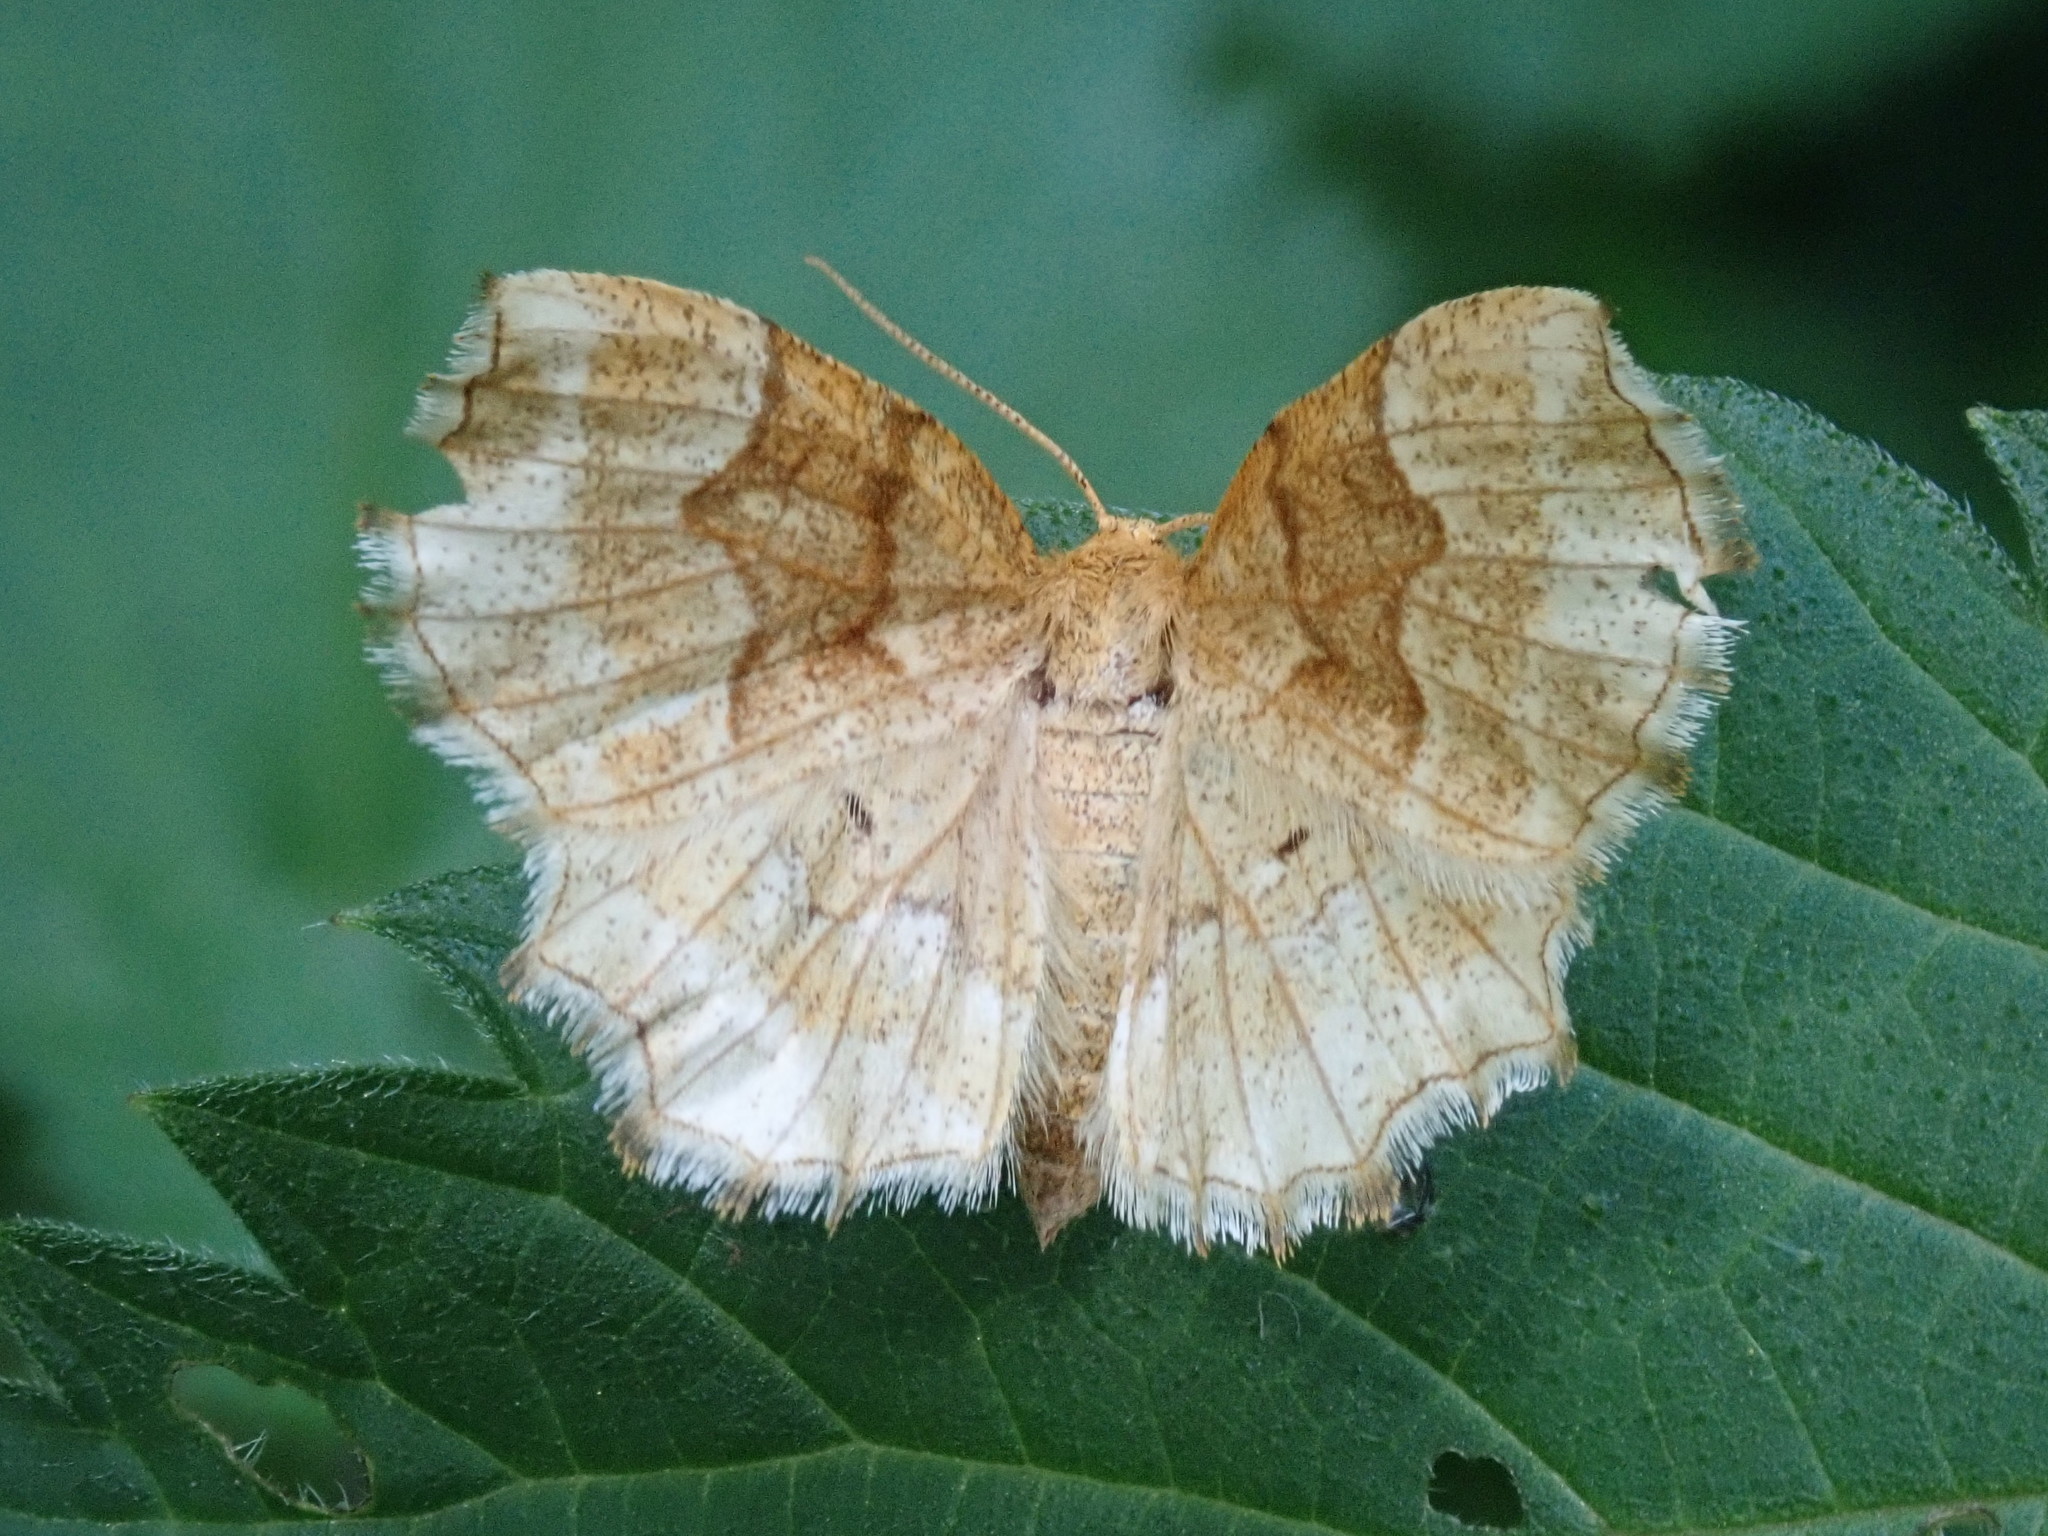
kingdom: Animalia
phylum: Arthropoda
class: Insecta
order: Lepidoptera
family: Geometridae
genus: Cepphis
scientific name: Cepphis advenaria
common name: Little thorn
